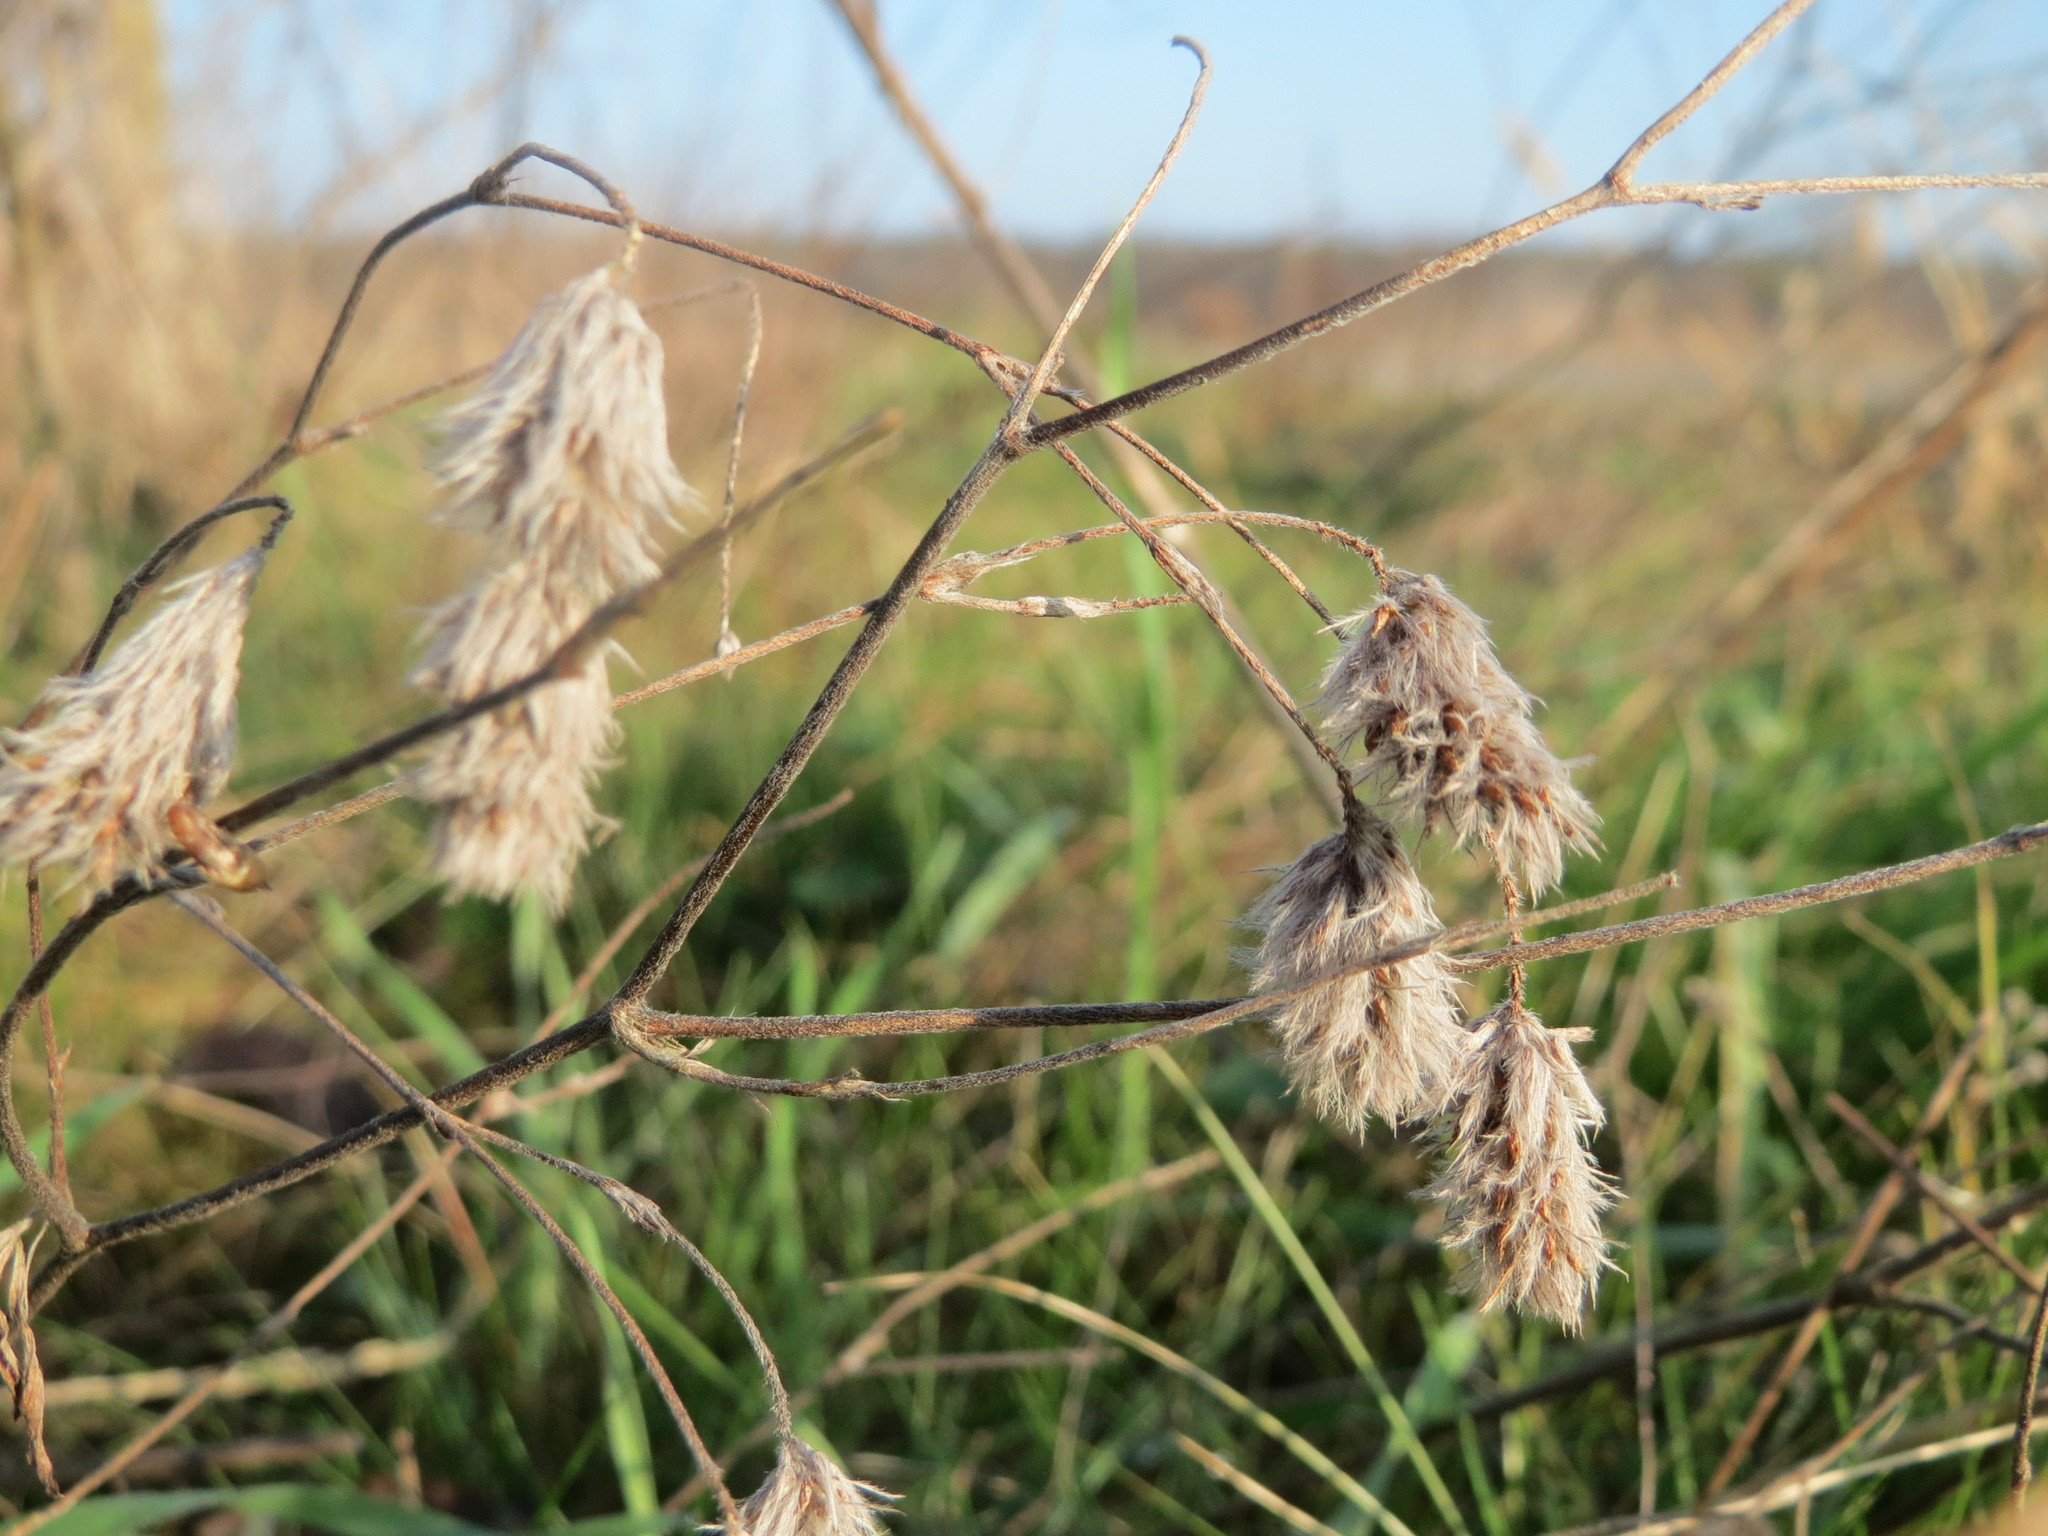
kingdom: Plantae
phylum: Tracheophyta
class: Magnoliopsida
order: Fabales
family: Fabaceae
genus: Trifolium
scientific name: Trifolium arvense
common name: Hare's-foot clover
